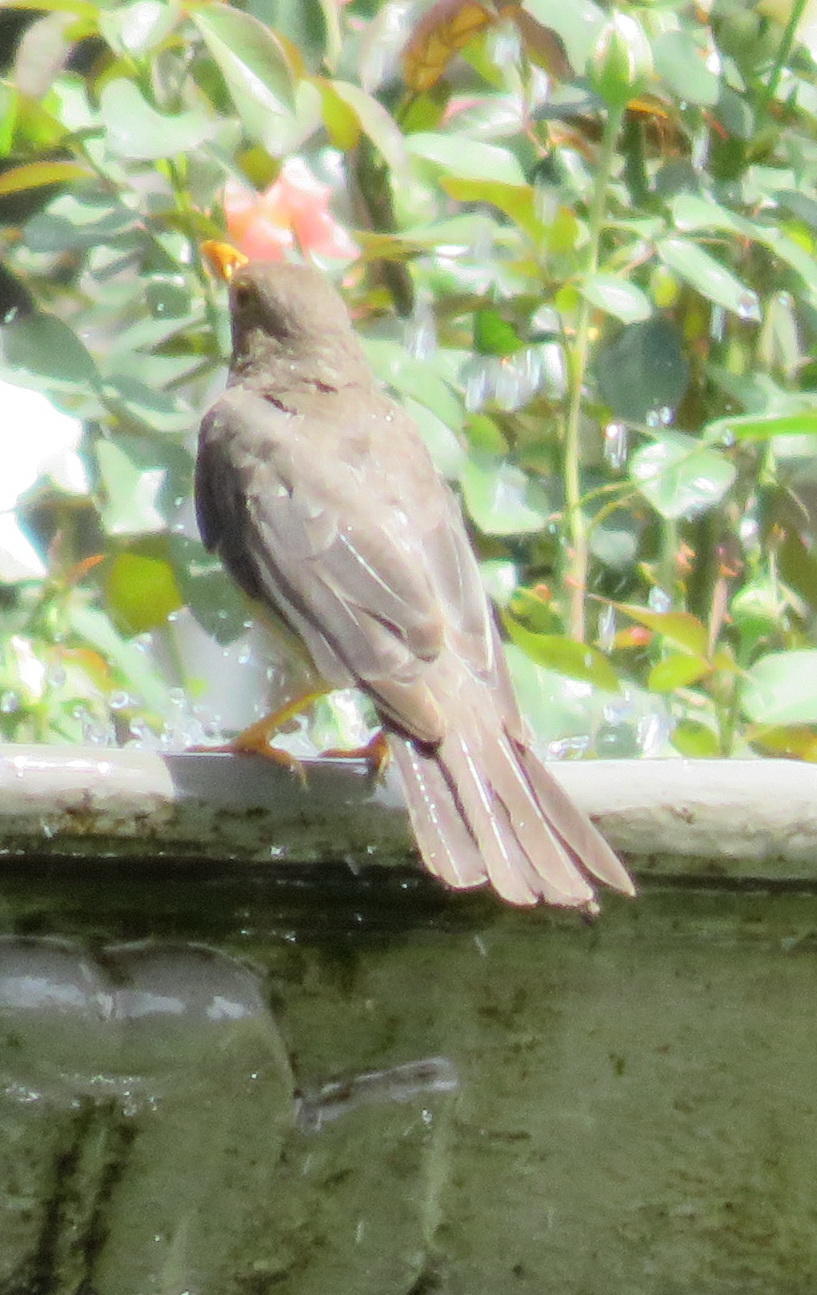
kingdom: Animalia
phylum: Chordata
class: Aves
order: Passeriformes
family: Turdidae
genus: Turdus
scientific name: Turdus smithi
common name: Karoo thrush
